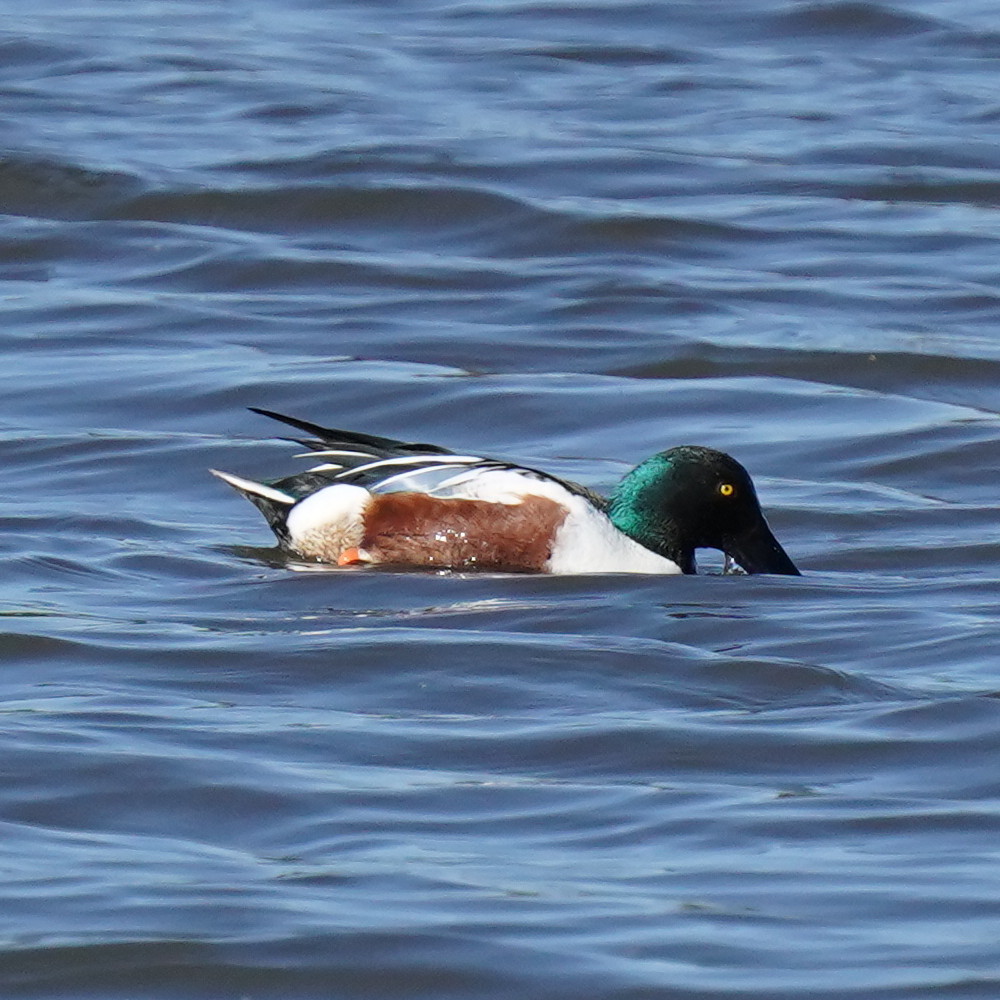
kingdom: Animalia
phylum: Chordata
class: Aves
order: Anseriformes
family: Anatidae
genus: Spatula
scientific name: Spatula clypeata
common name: Northern shoveler
